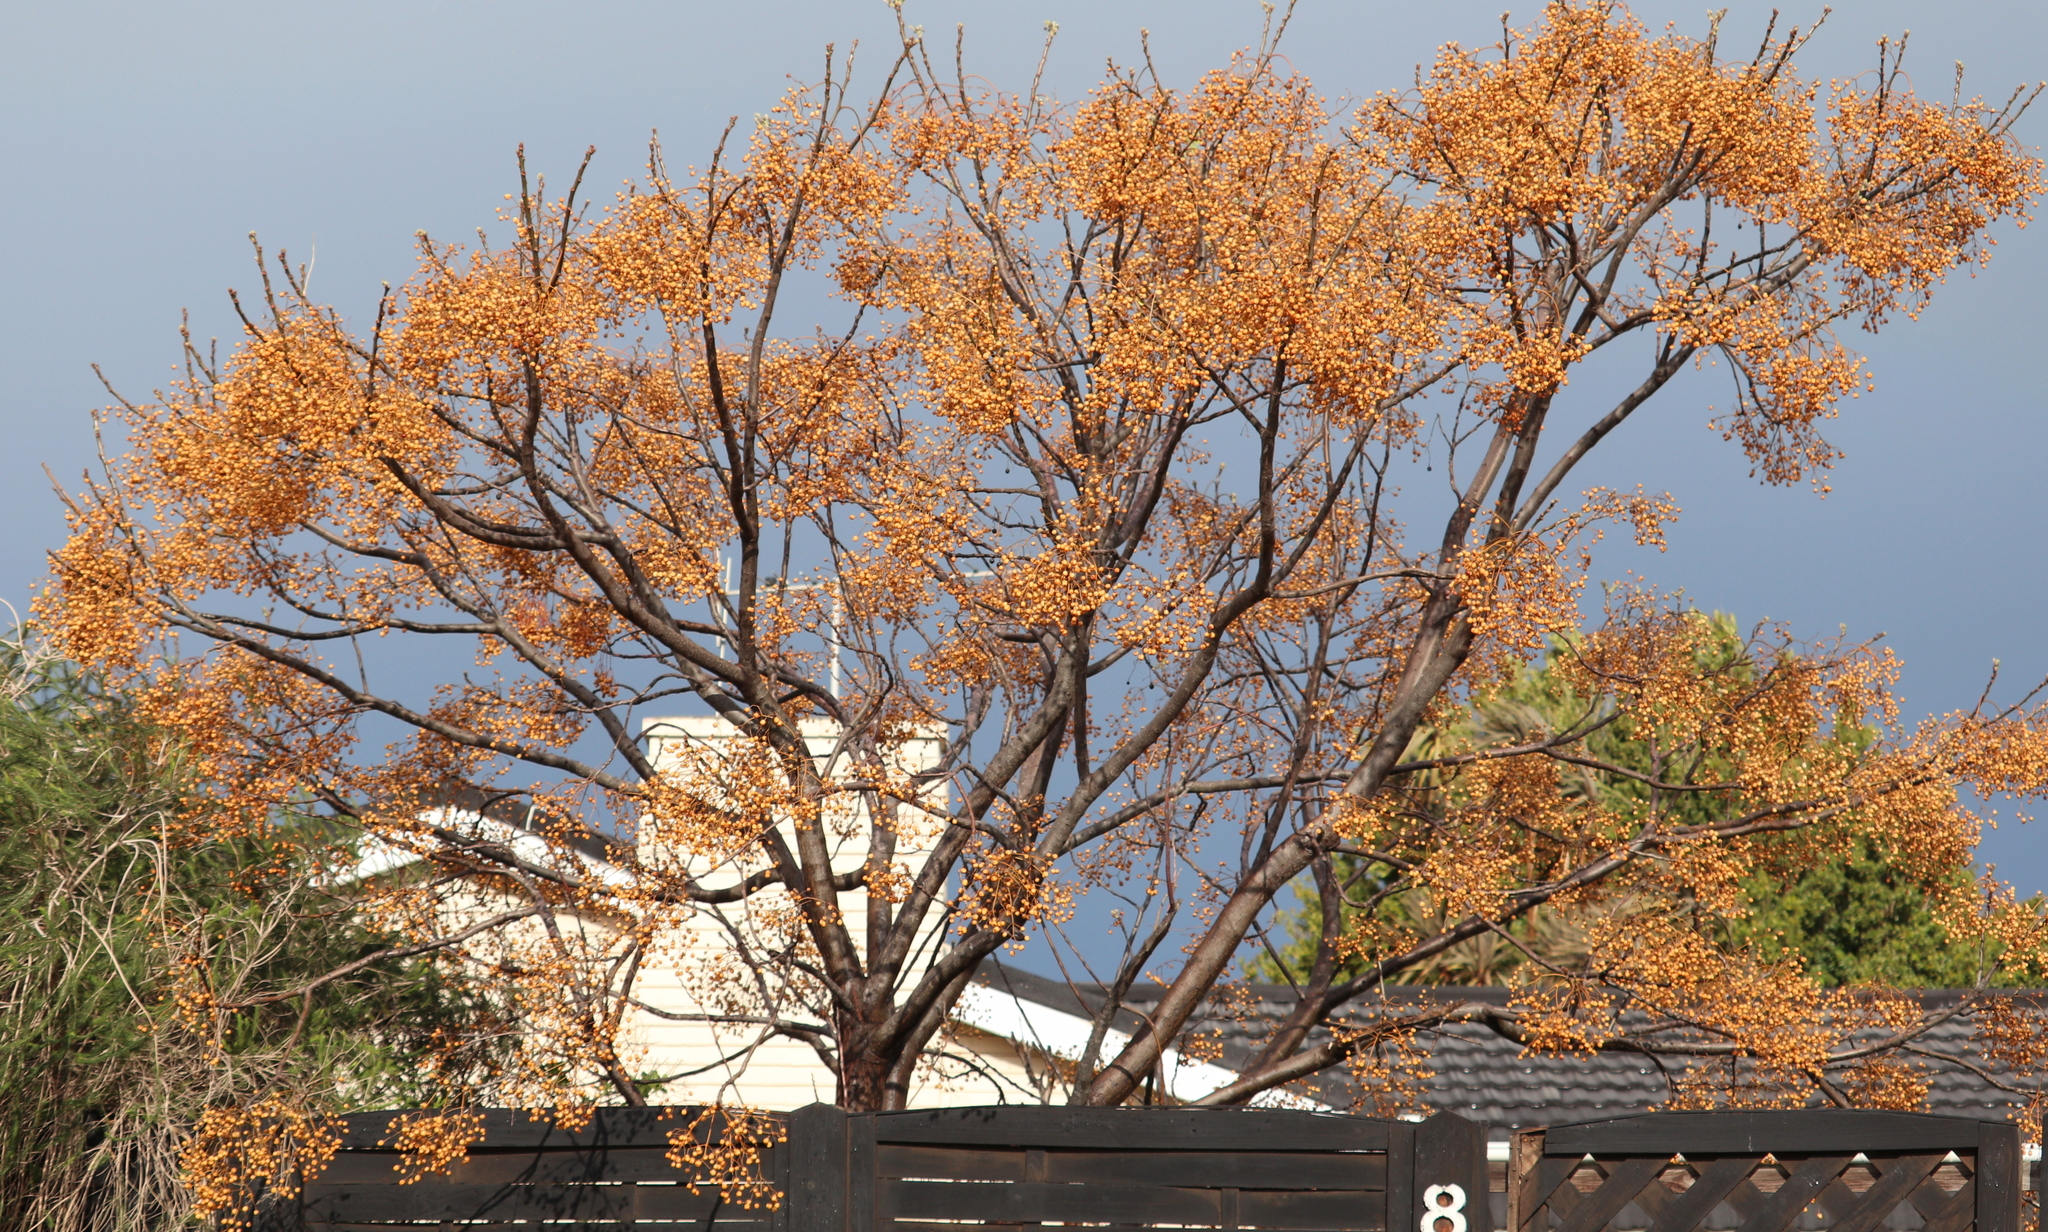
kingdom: Plantae
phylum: Tracheophyta
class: Magnoliopsida
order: Sapindales
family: Meliaceae
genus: Melia
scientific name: Melia azedarach
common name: Chinaberrytree
